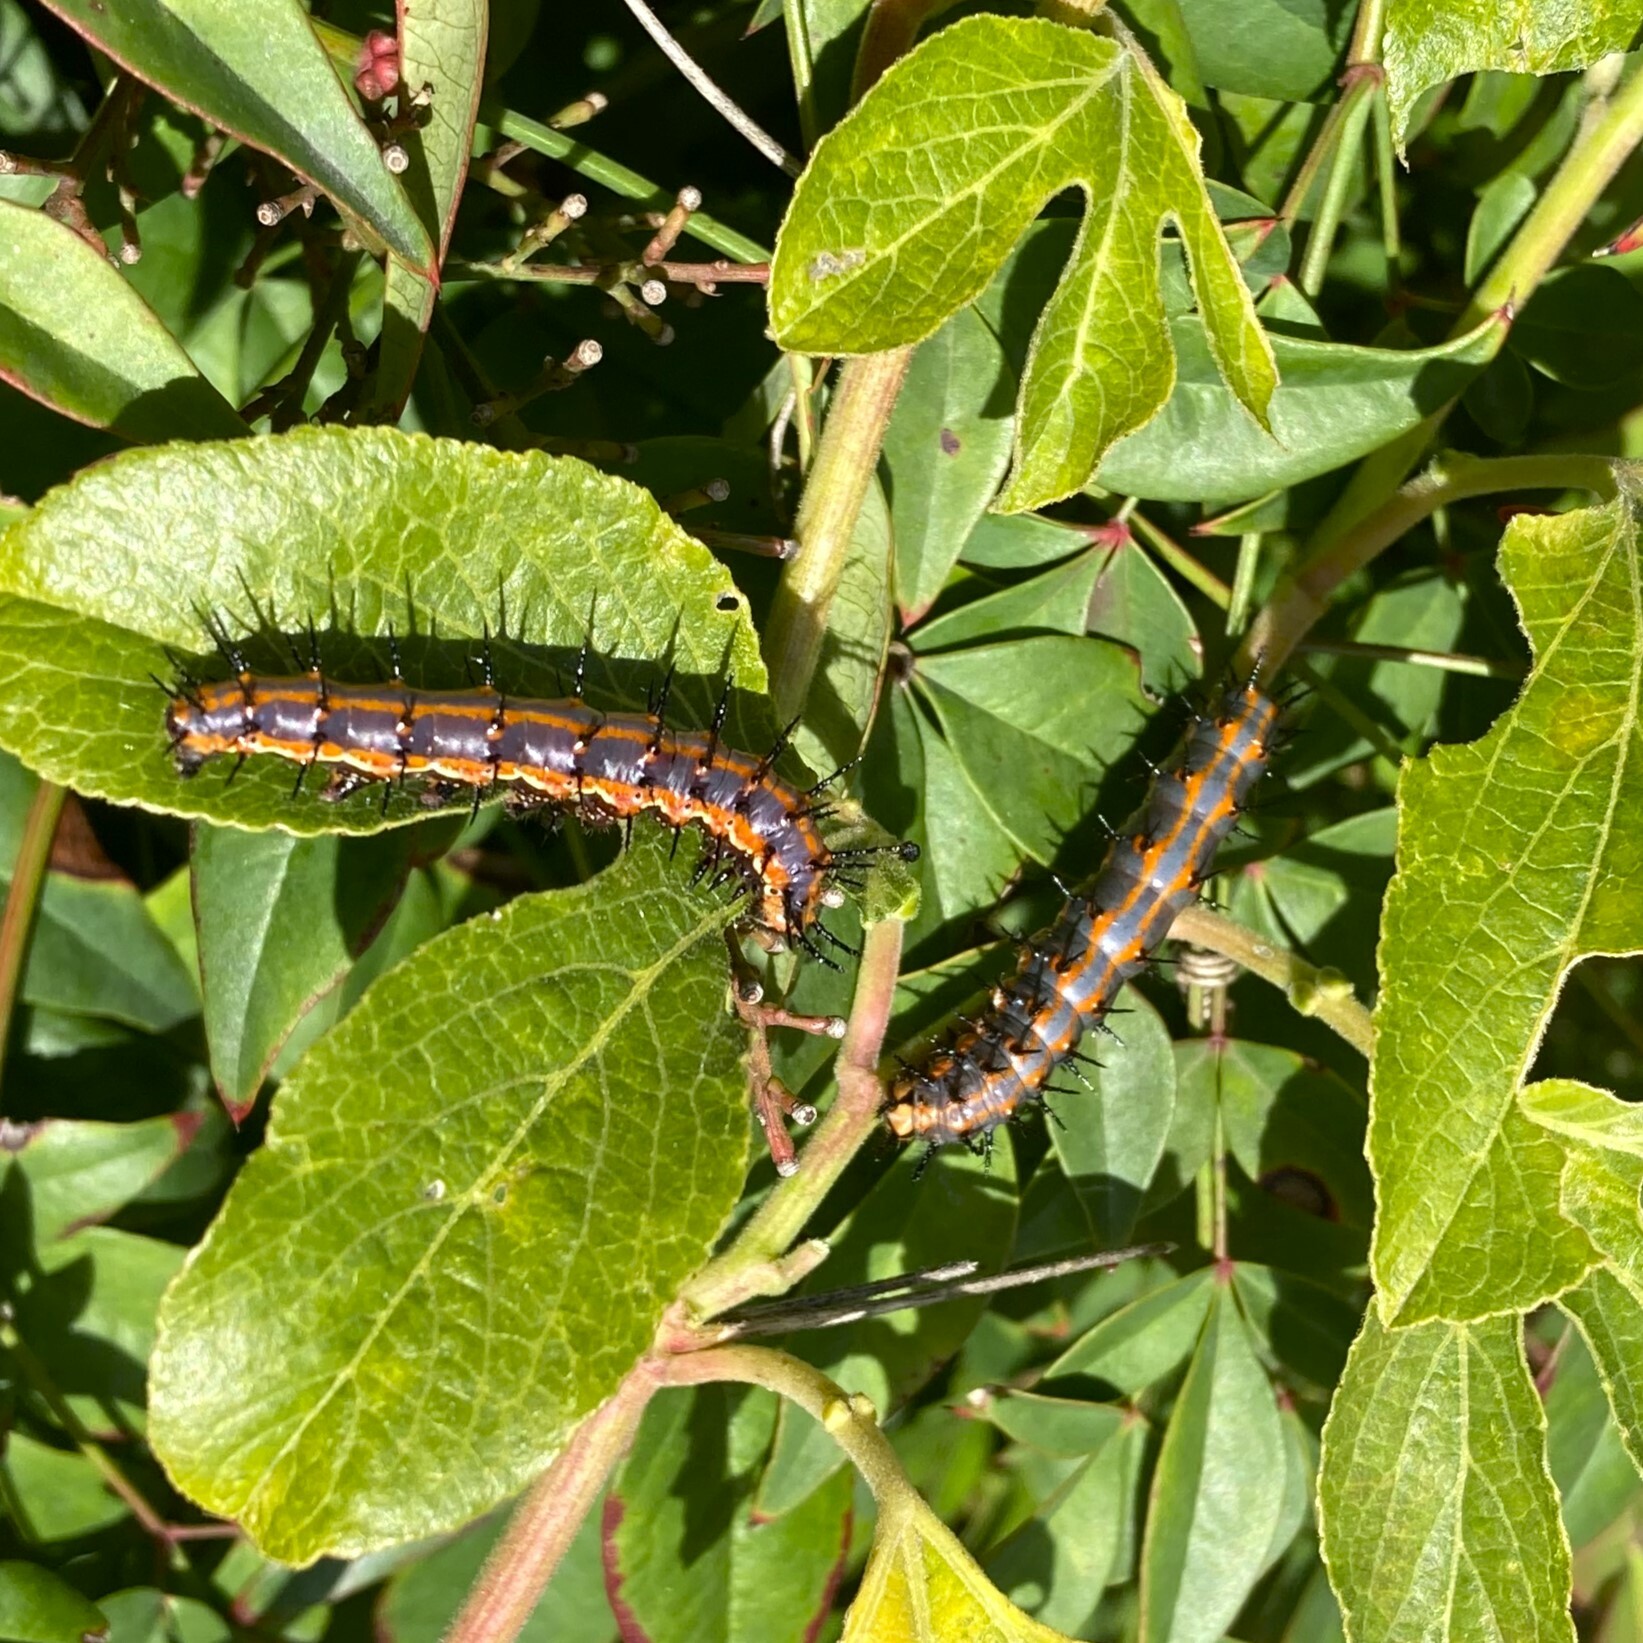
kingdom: Animalia
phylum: Arthropoda
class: Insecta
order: Lepidoptera
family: Nymphalidae
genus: Dione
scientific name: Dione vanillae
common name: Gulf fritillary
